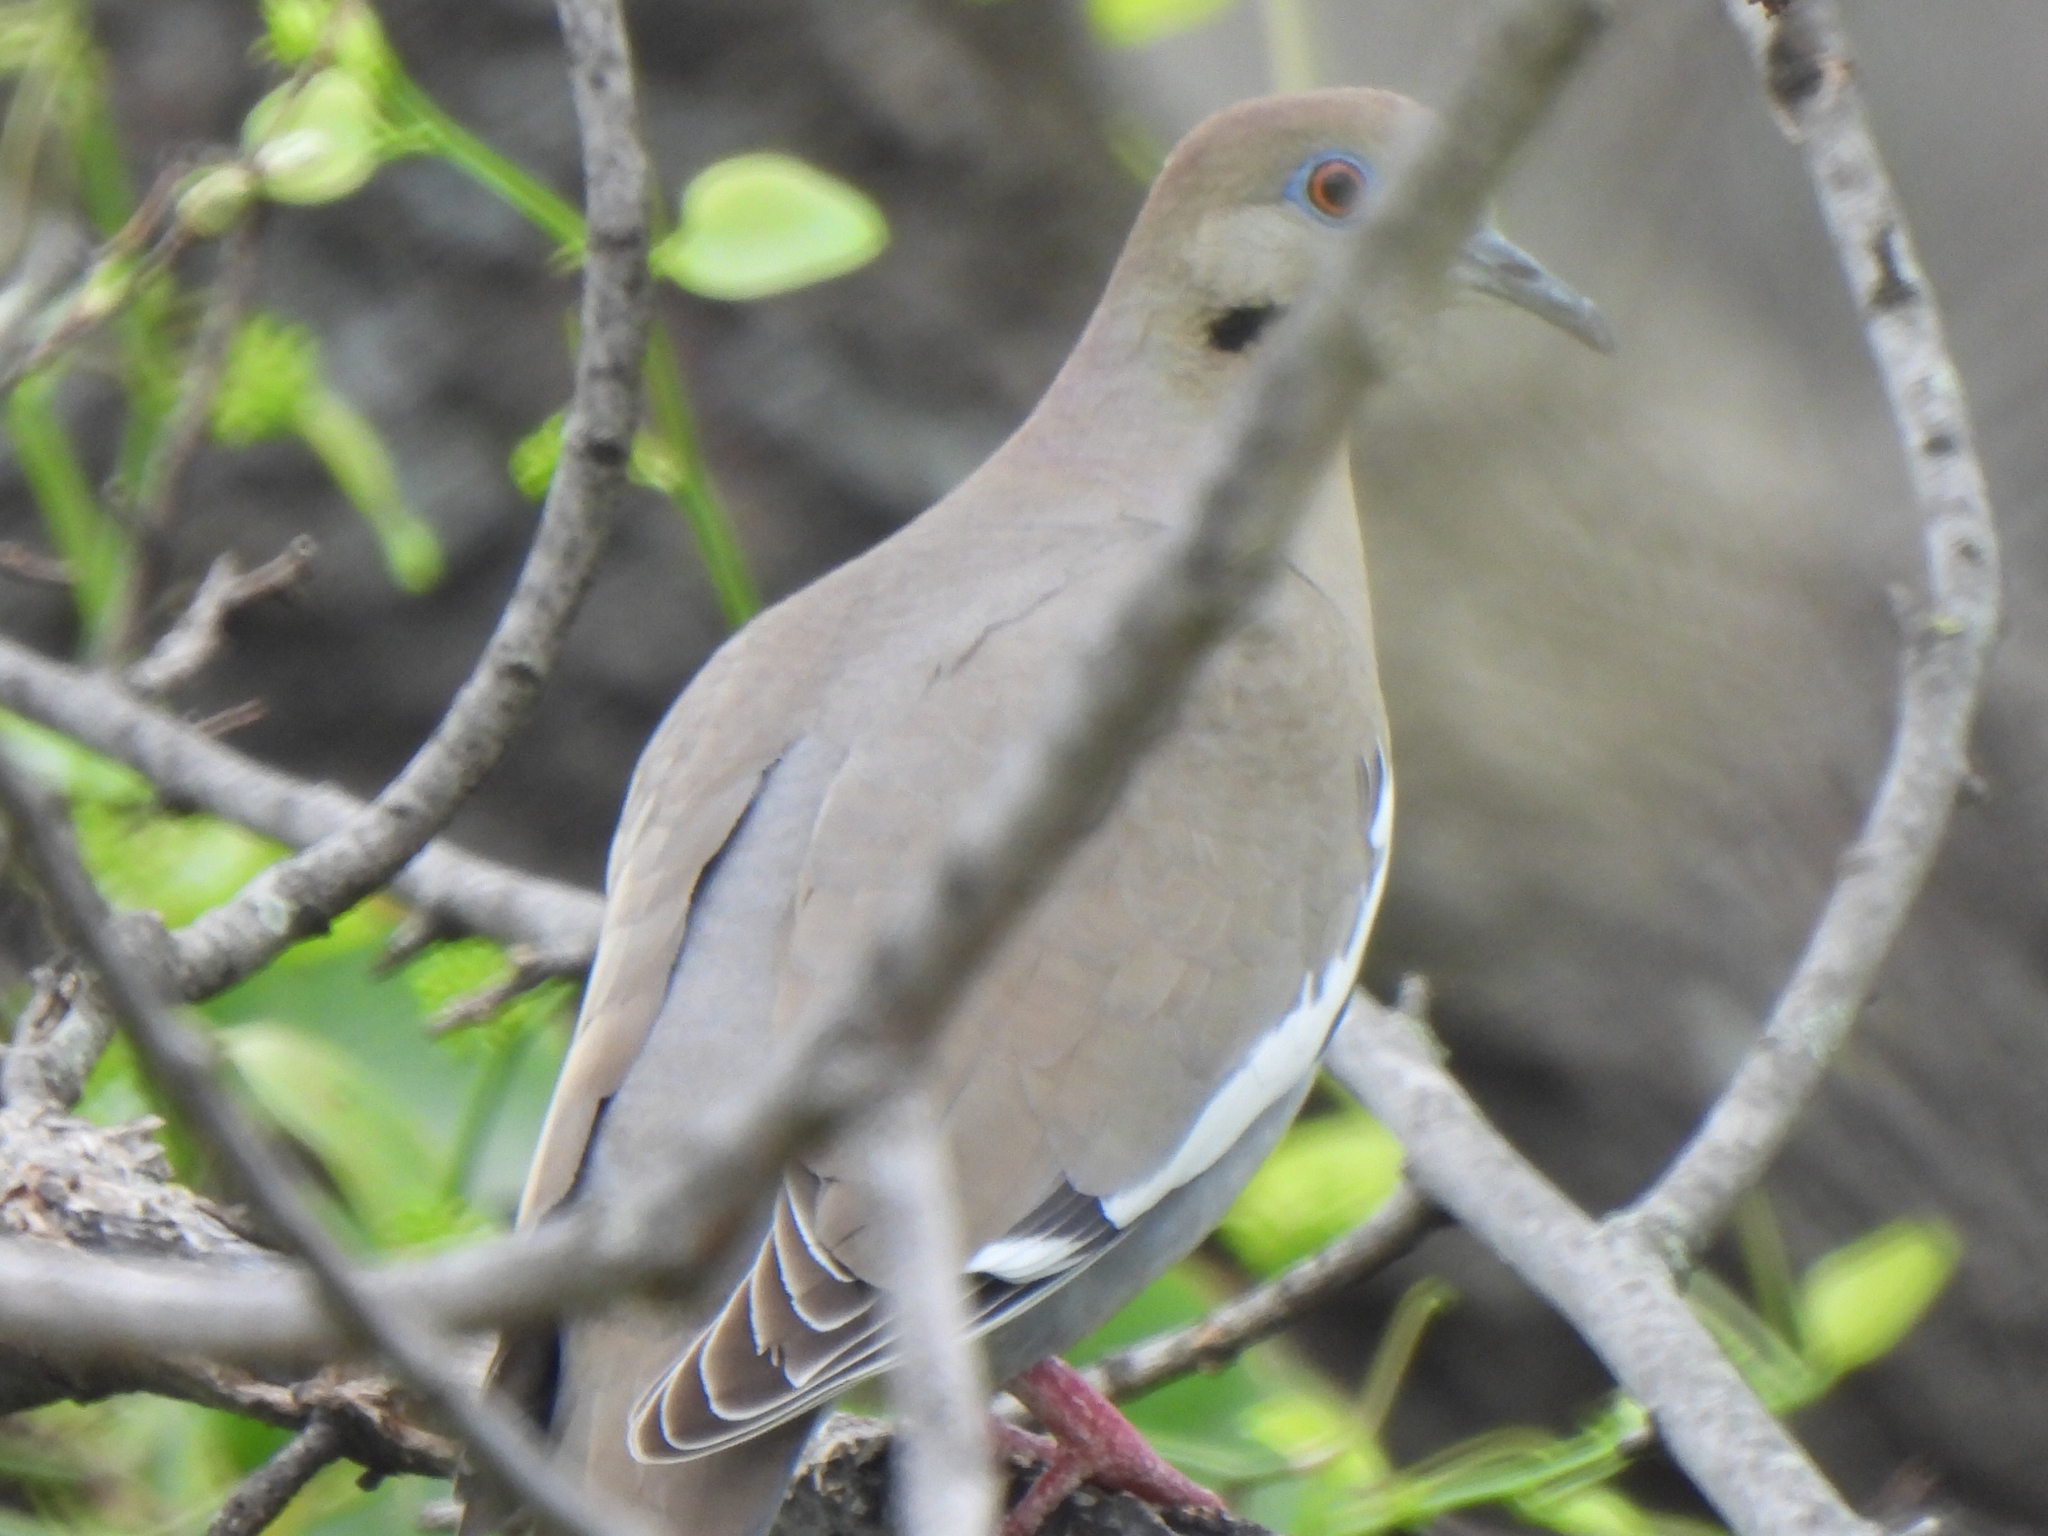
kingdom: Animalia
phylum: Chordata
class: Aves
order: Columbiformes
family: Columbidae
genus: Zenaida
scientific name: Zenaida asiatica
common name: White-winged dove
